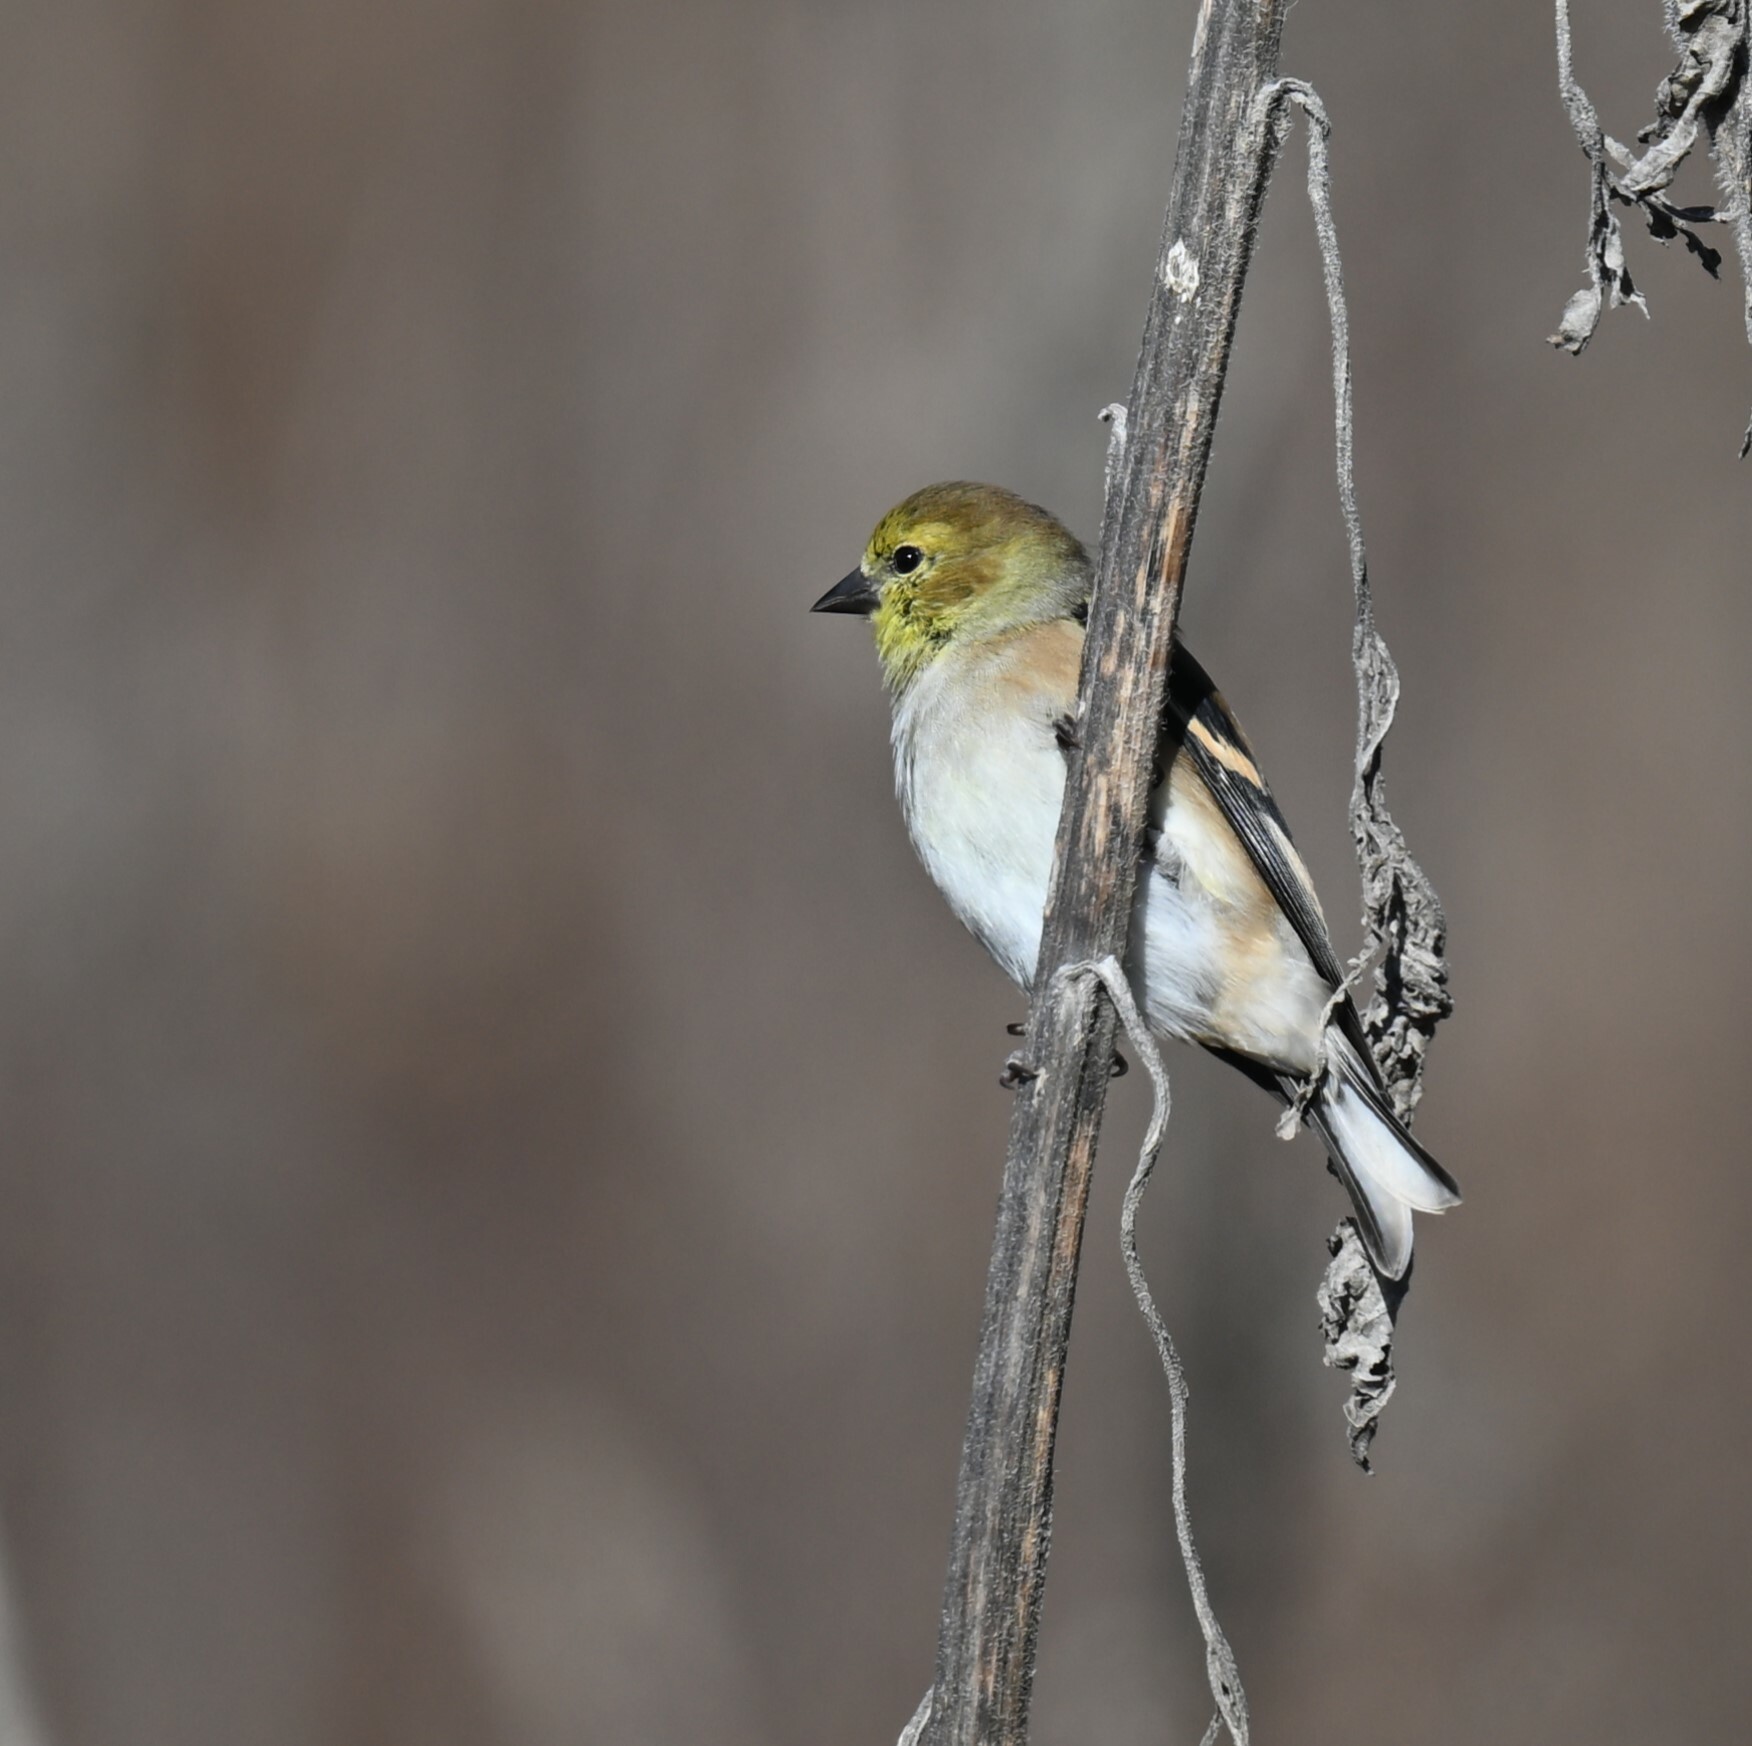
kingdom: Animalia
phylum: Chordata
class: Aves
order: Passeriformes
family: Fringillidae
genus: Spinus
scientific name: Spinus tristis
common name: American goldfinch
